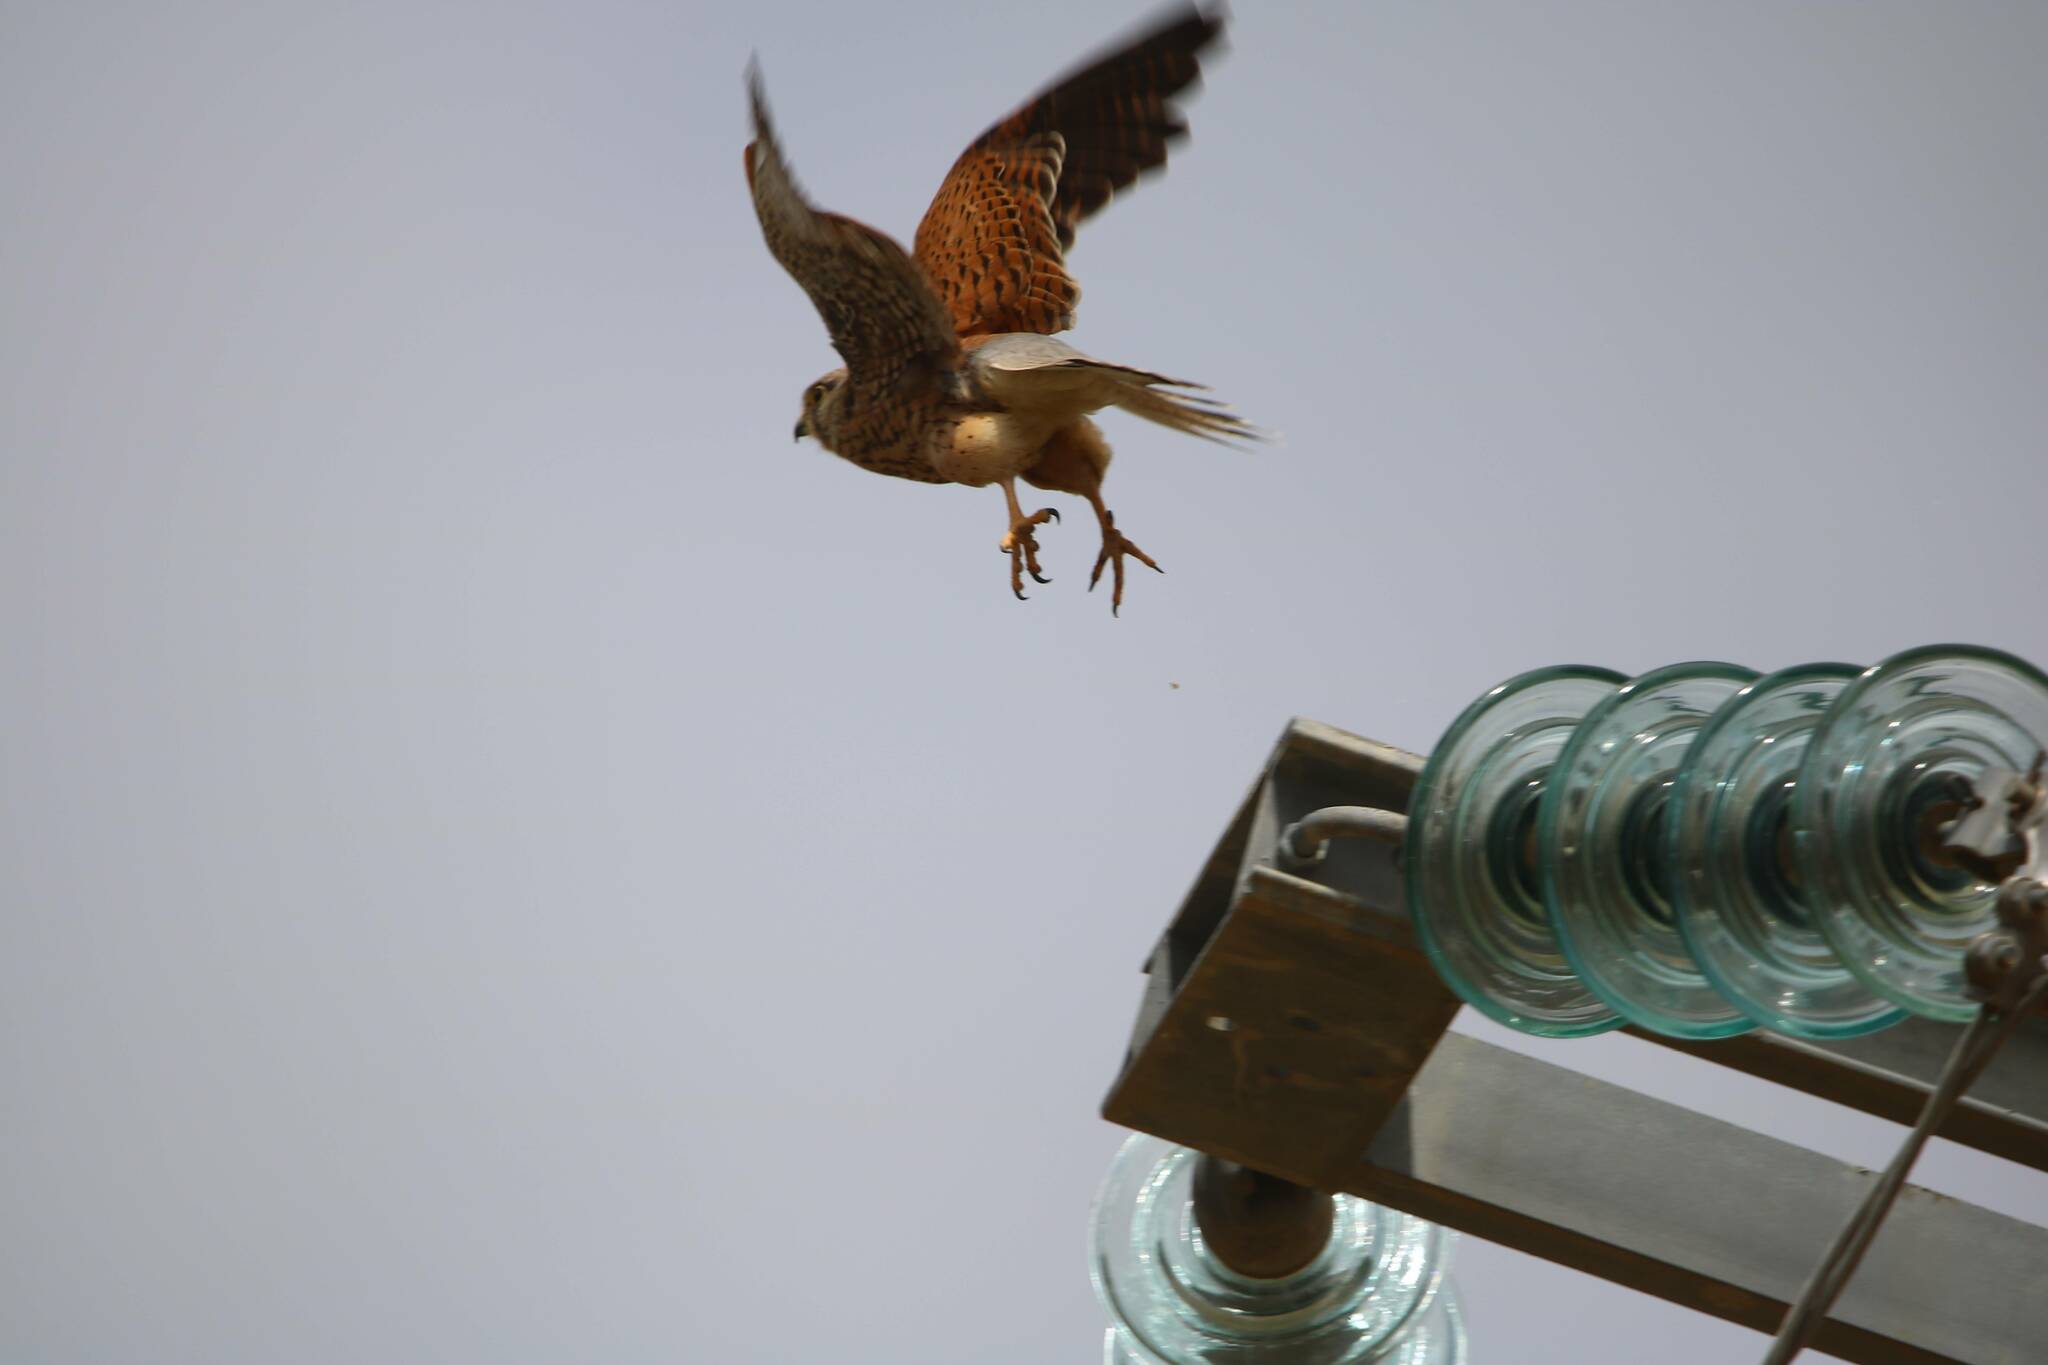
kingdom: Animalia
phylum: Chordata
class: Aves
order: Falconiformes
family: Falconidae
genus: Falco
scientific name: Falco tinnunculus
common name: Common kestrel
